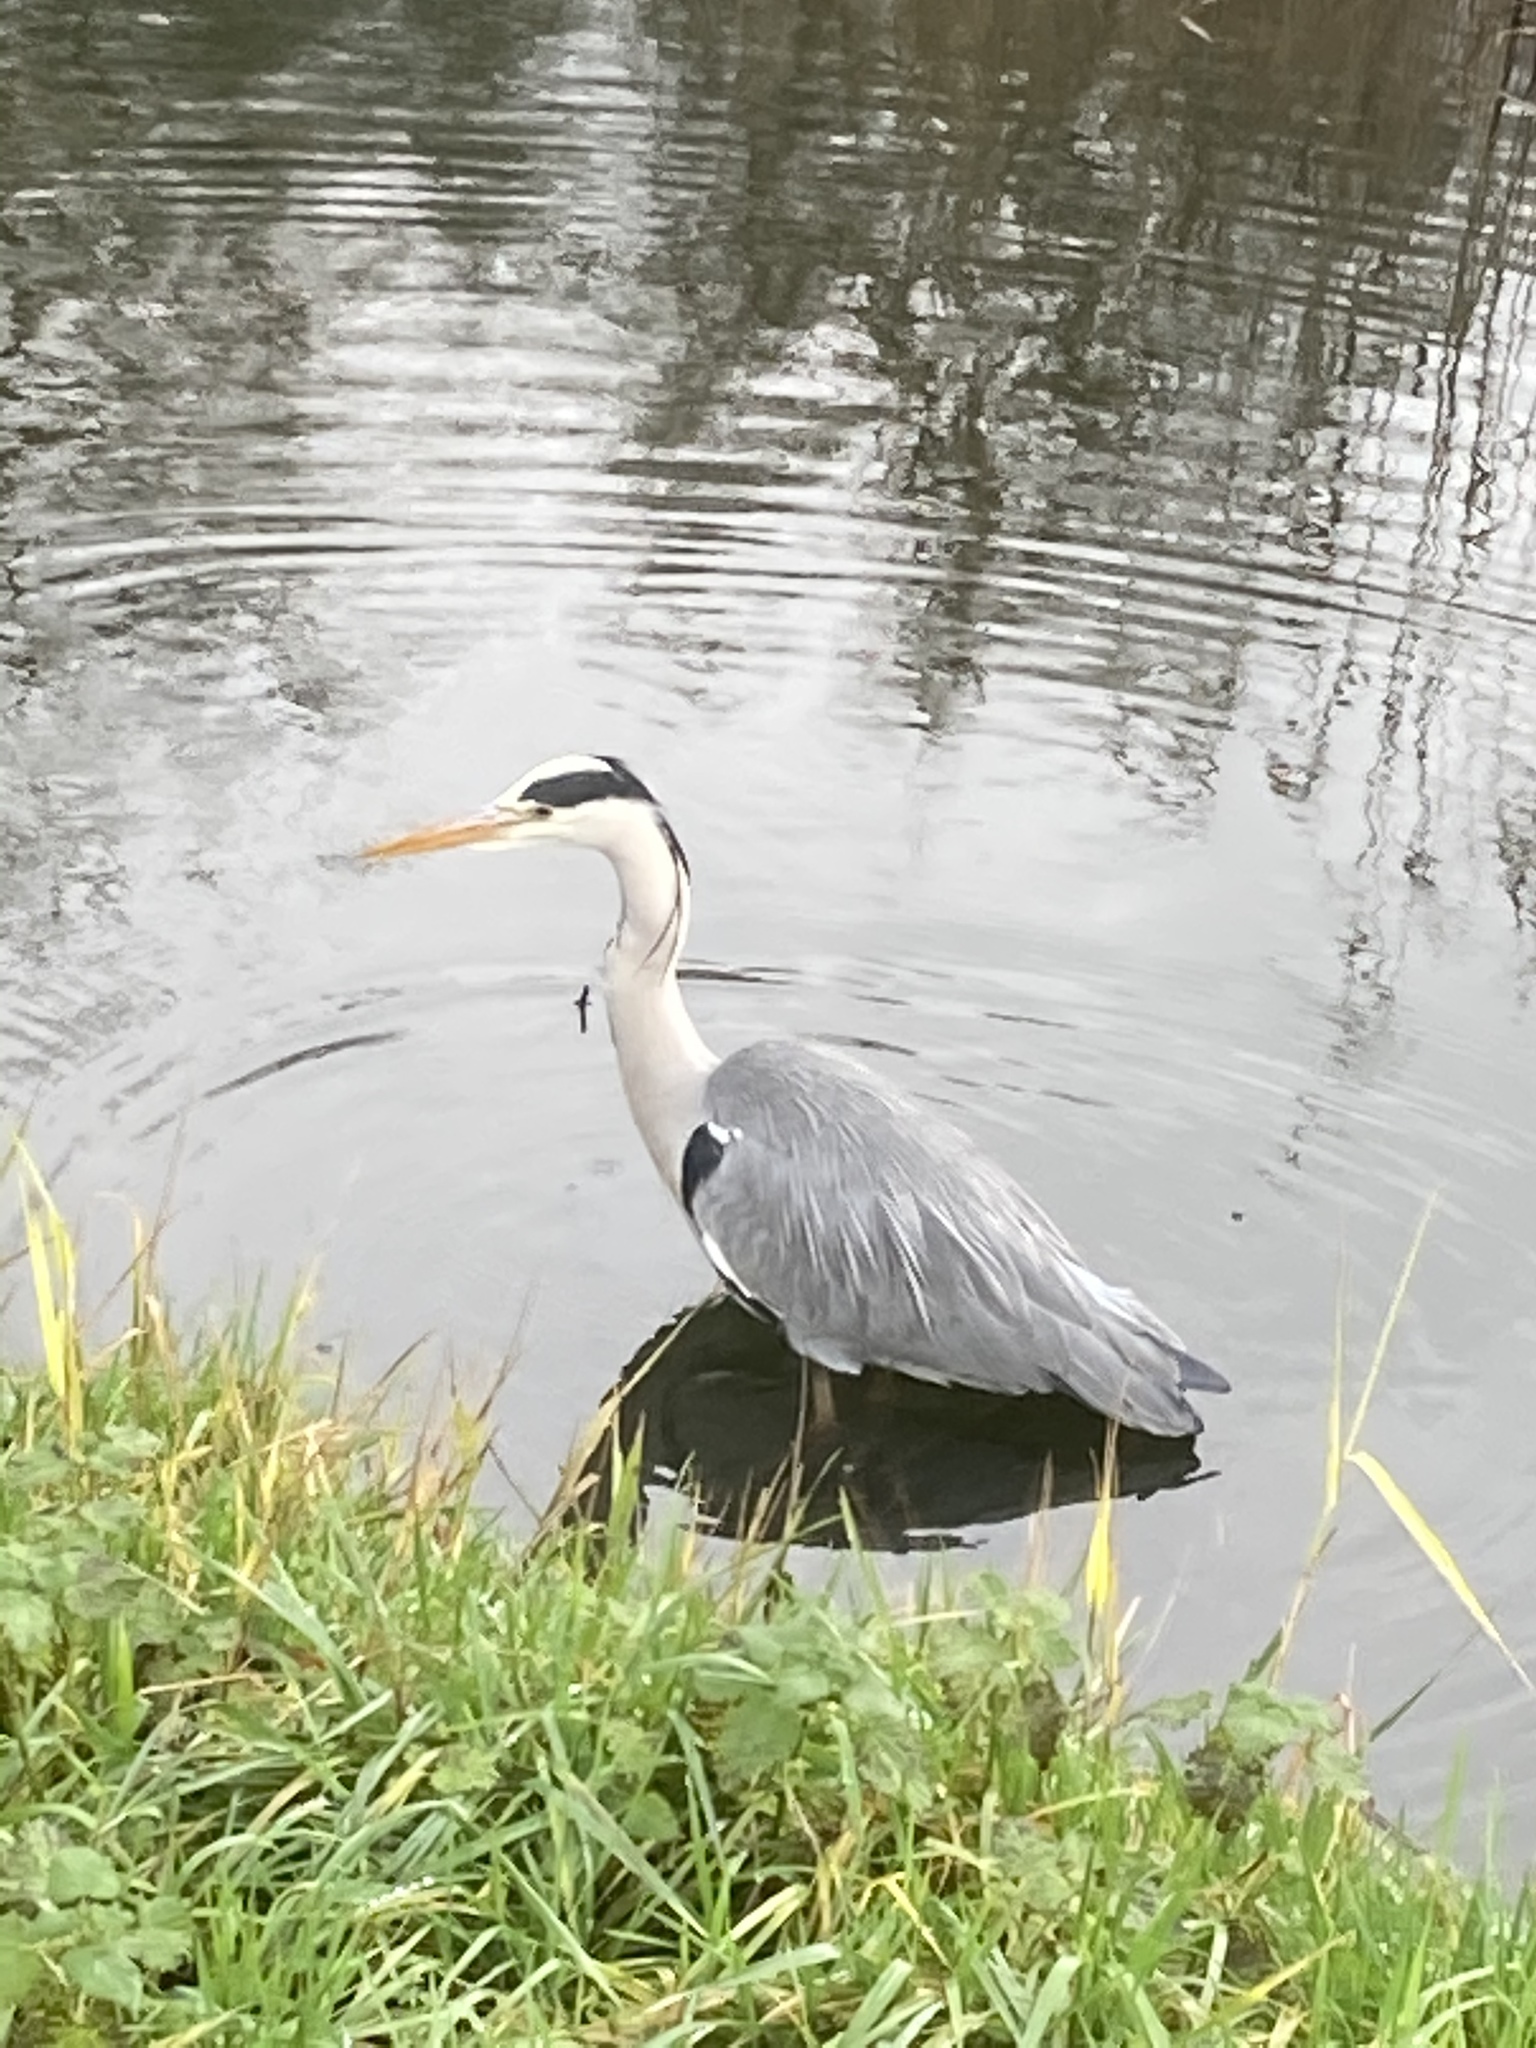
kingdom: Animalia
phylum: Chordata
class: Aves
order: Pelecaniformes
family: Ardeidae
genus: Ardea
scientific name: Ardea cinerea
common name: Grey heron
